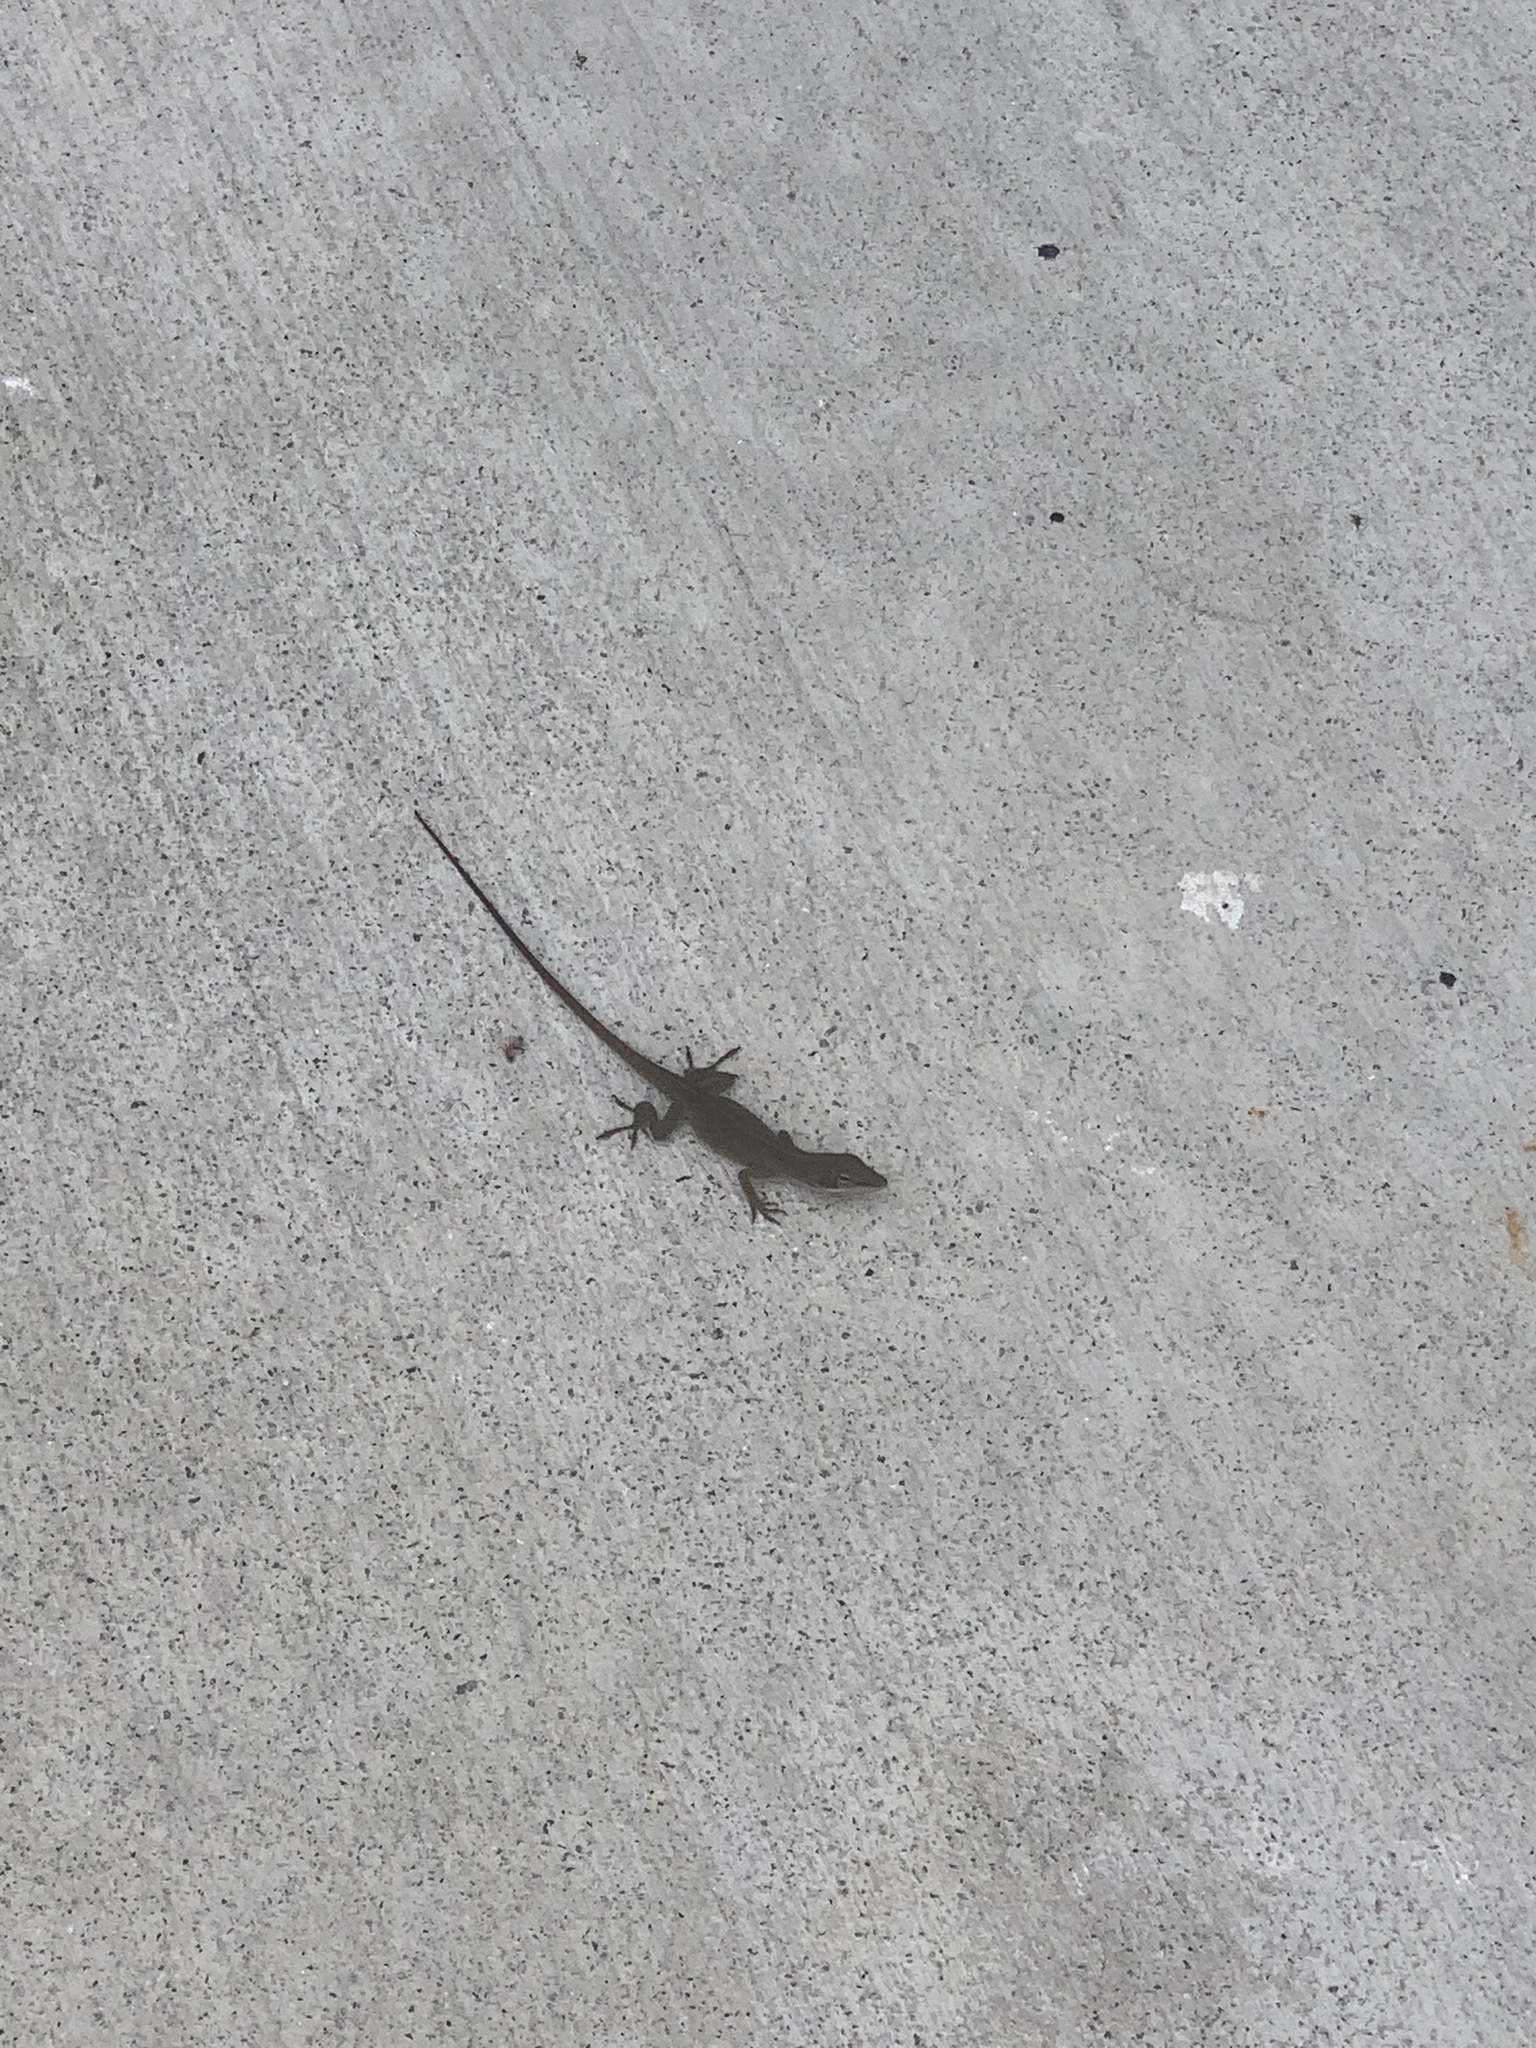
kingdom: Animalia
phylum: Chordata
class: Squamata
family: Dactyloidae
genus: Anolis
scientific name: Anolis carolinensis
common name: Green anole
